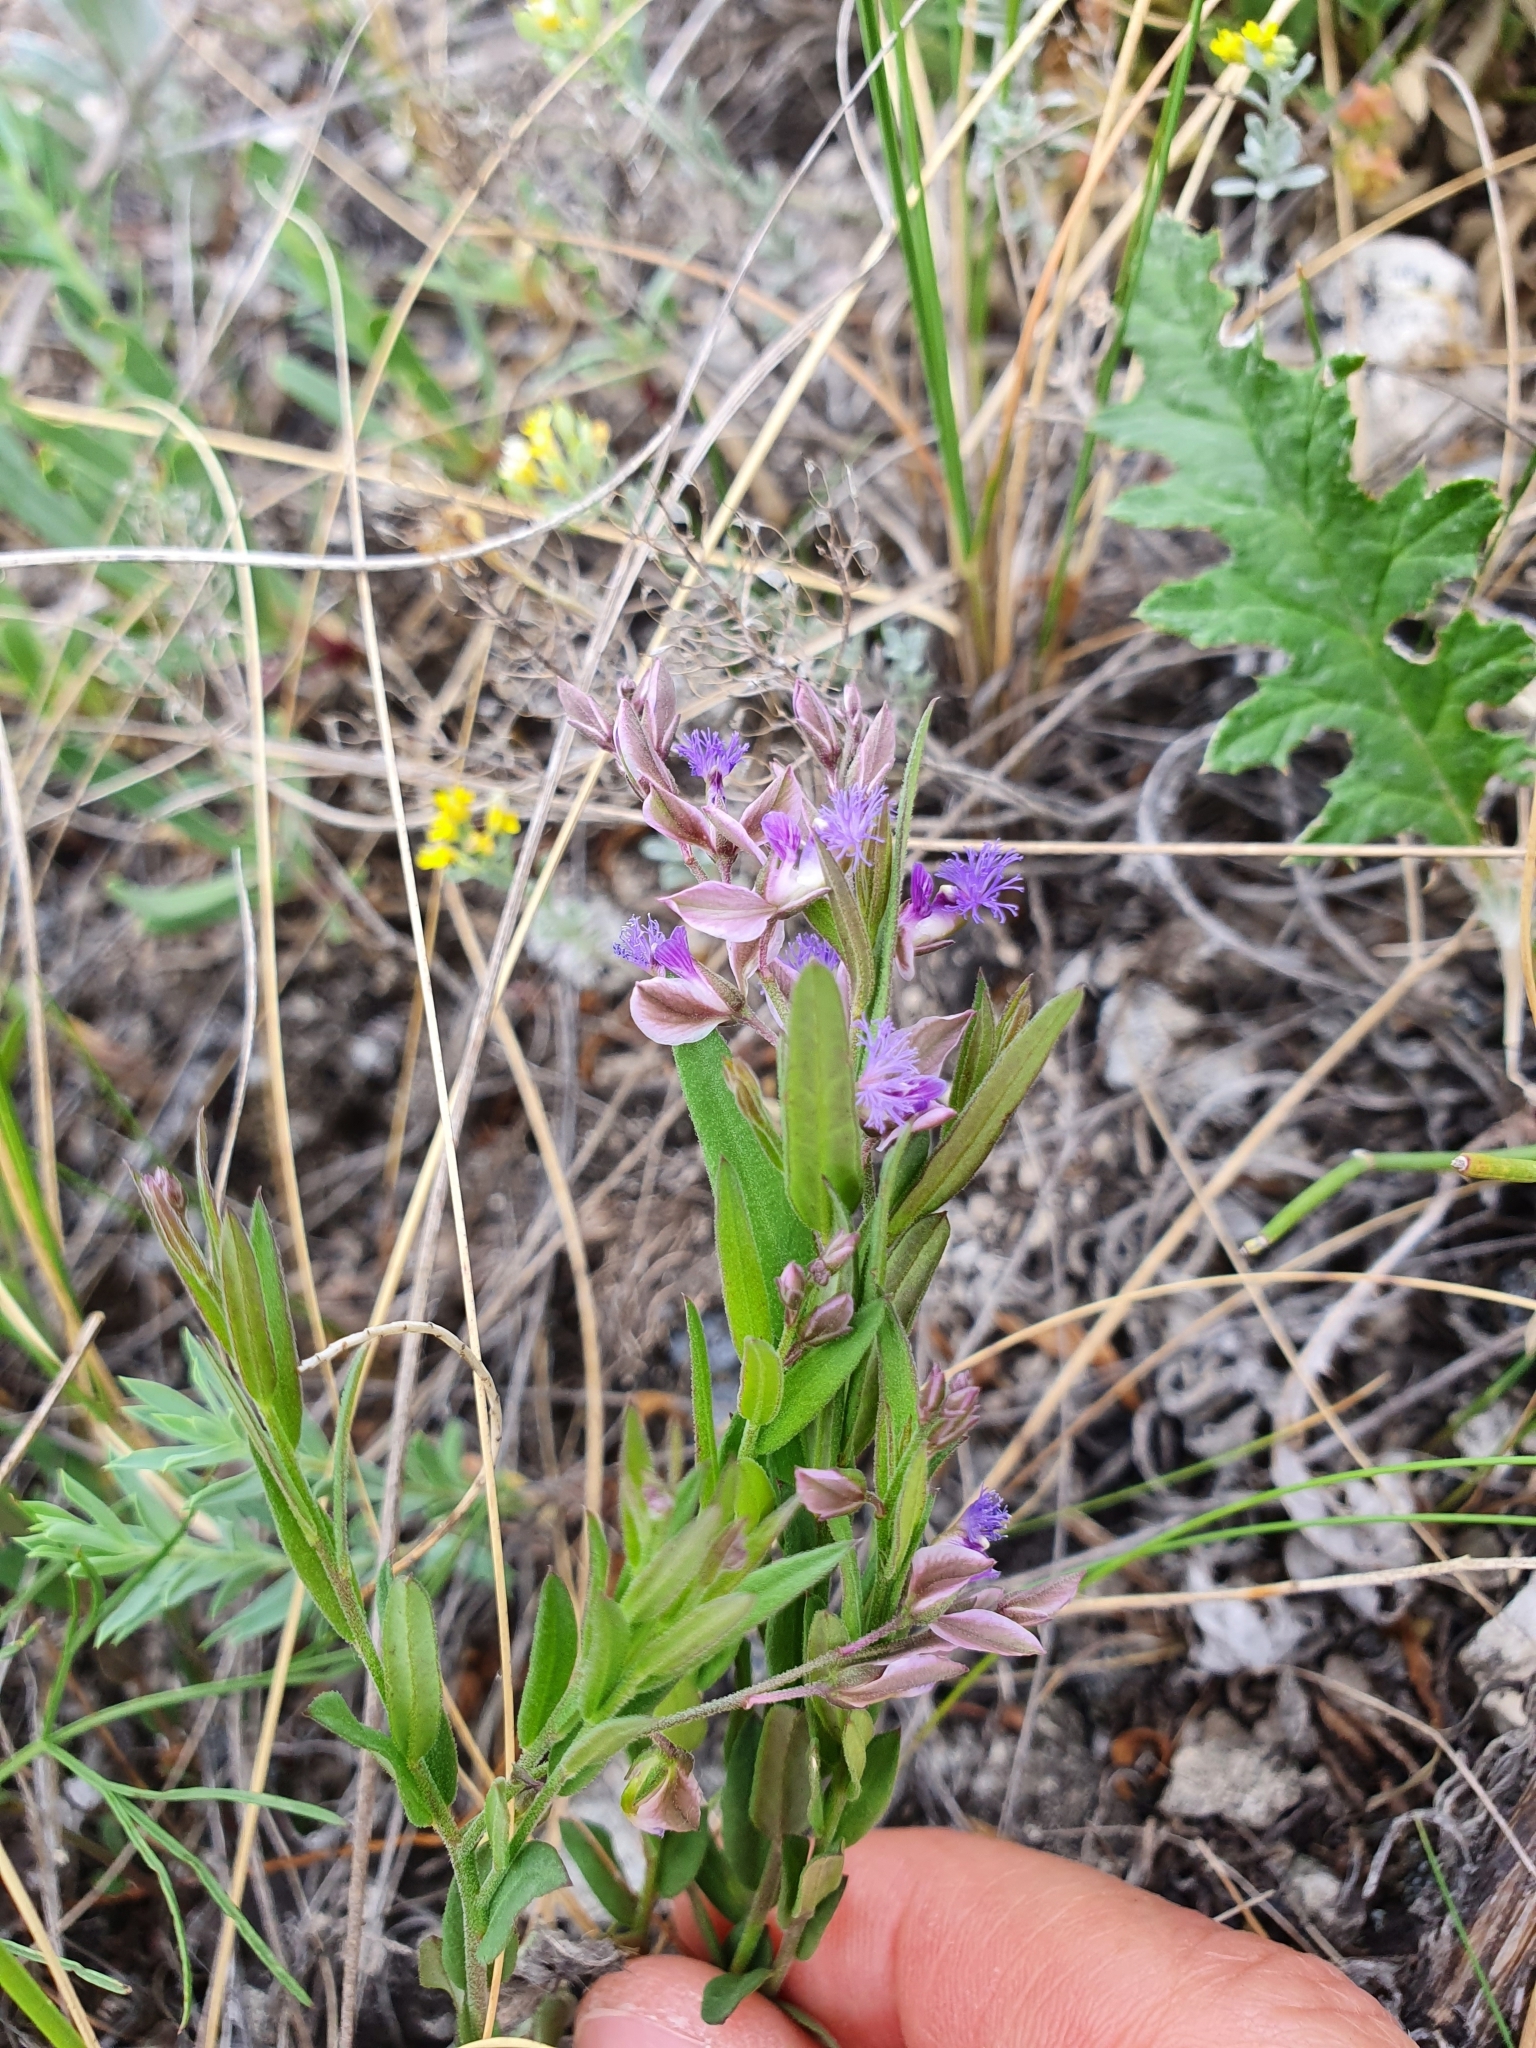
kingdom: Plantae
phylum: Tracheophyta
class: Magnoliopsida
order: Fabales
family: Polygalaceae
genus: Polygala
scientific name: Polygala sibirica
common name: Siberian polygala
